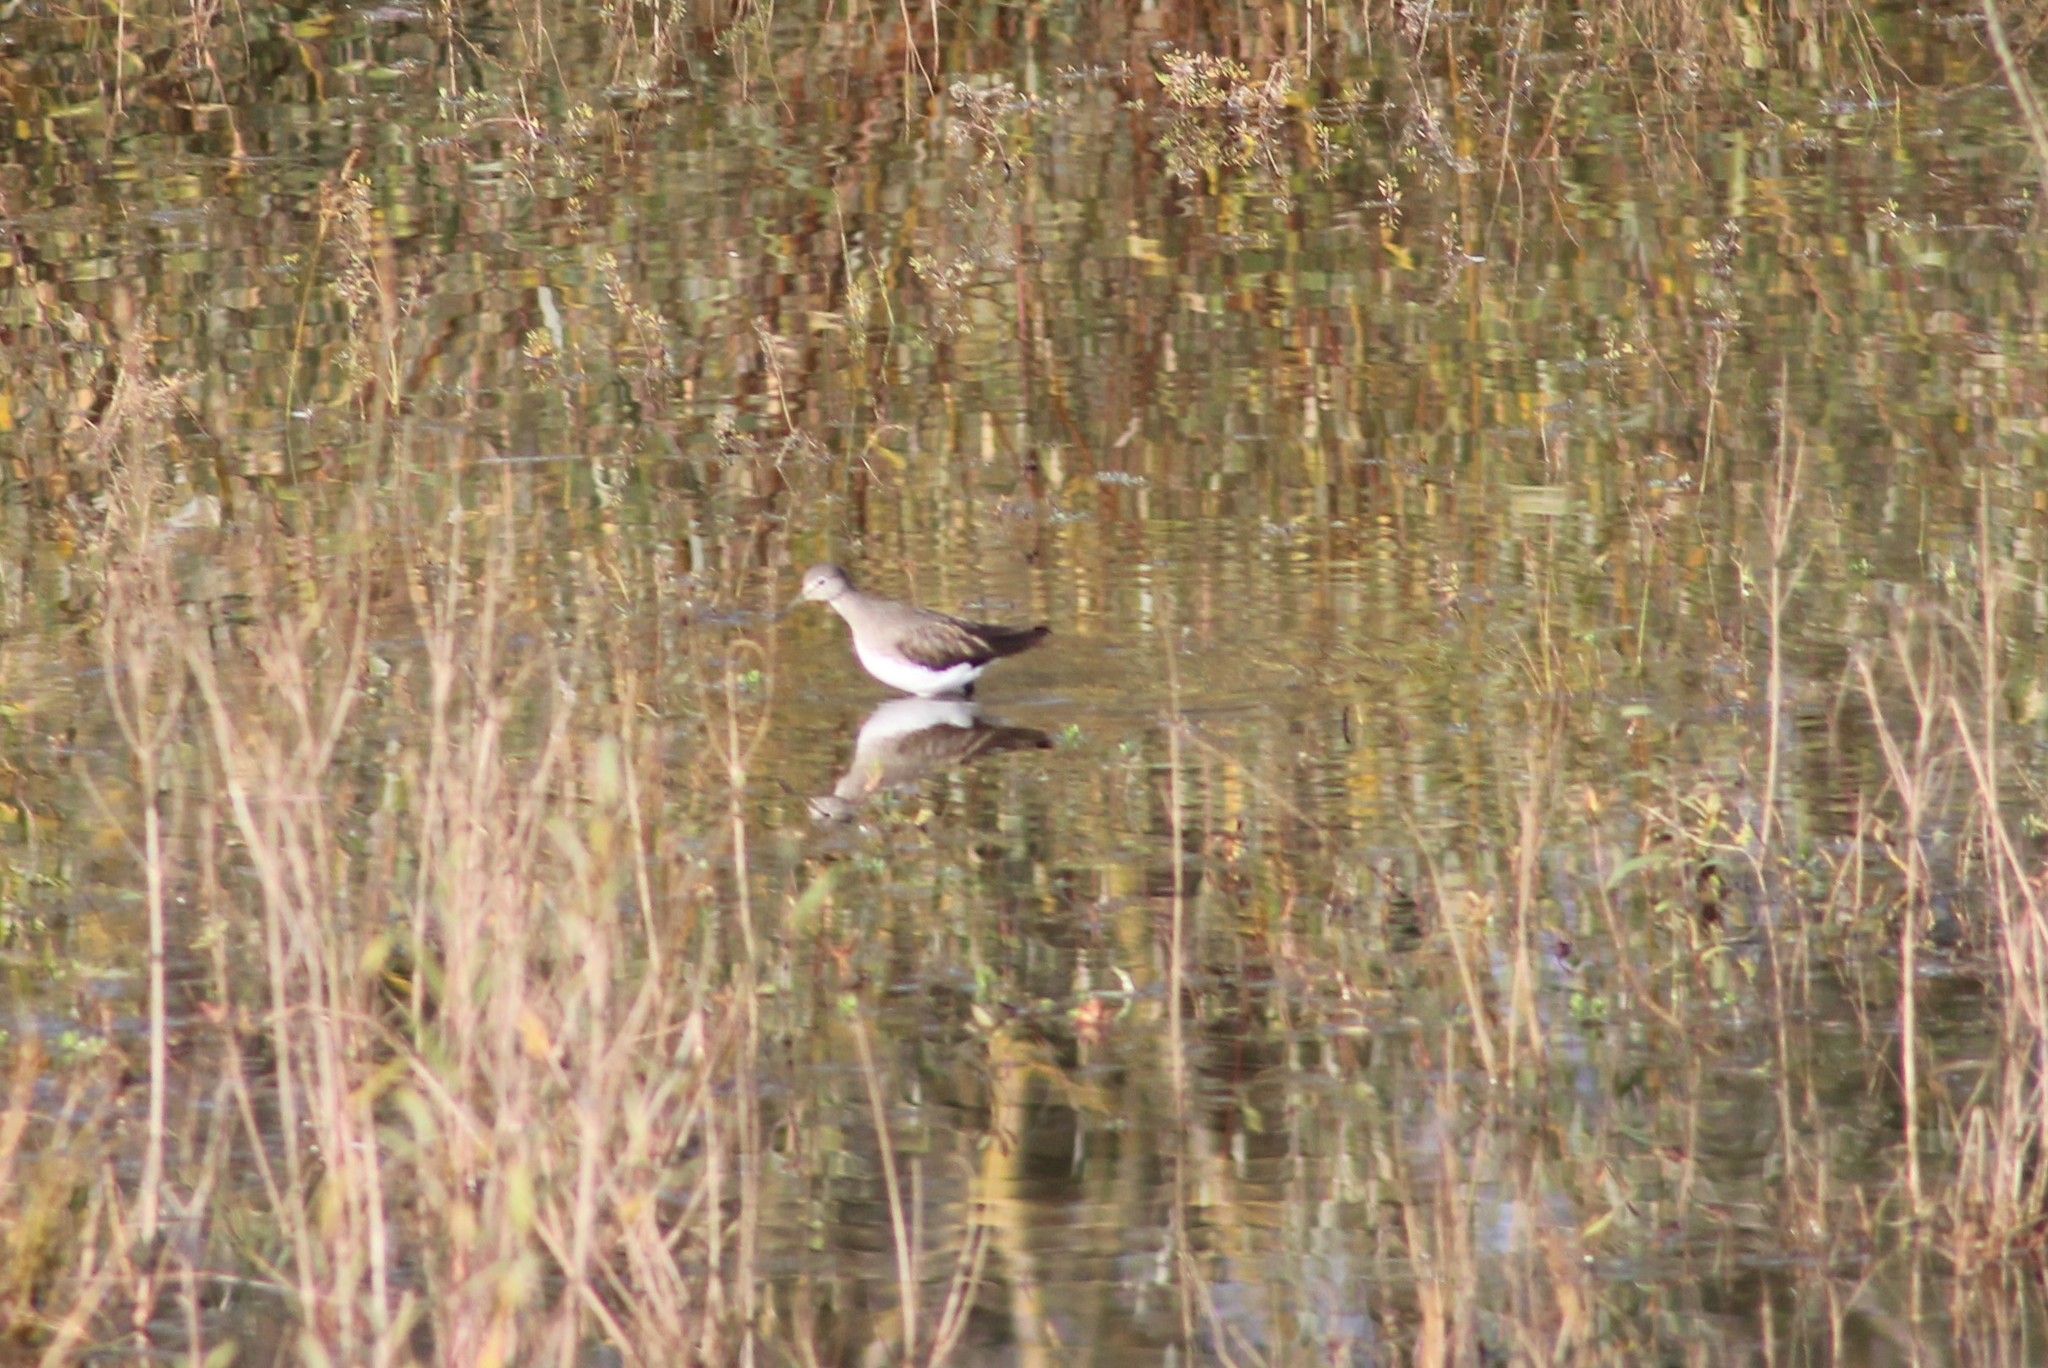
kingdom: Animalia
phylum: Chordata
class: Aves
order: Charadriiformes
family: Scolopacidae
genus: Tringa
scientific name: Tringa ochropus
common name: Green sandpiper
